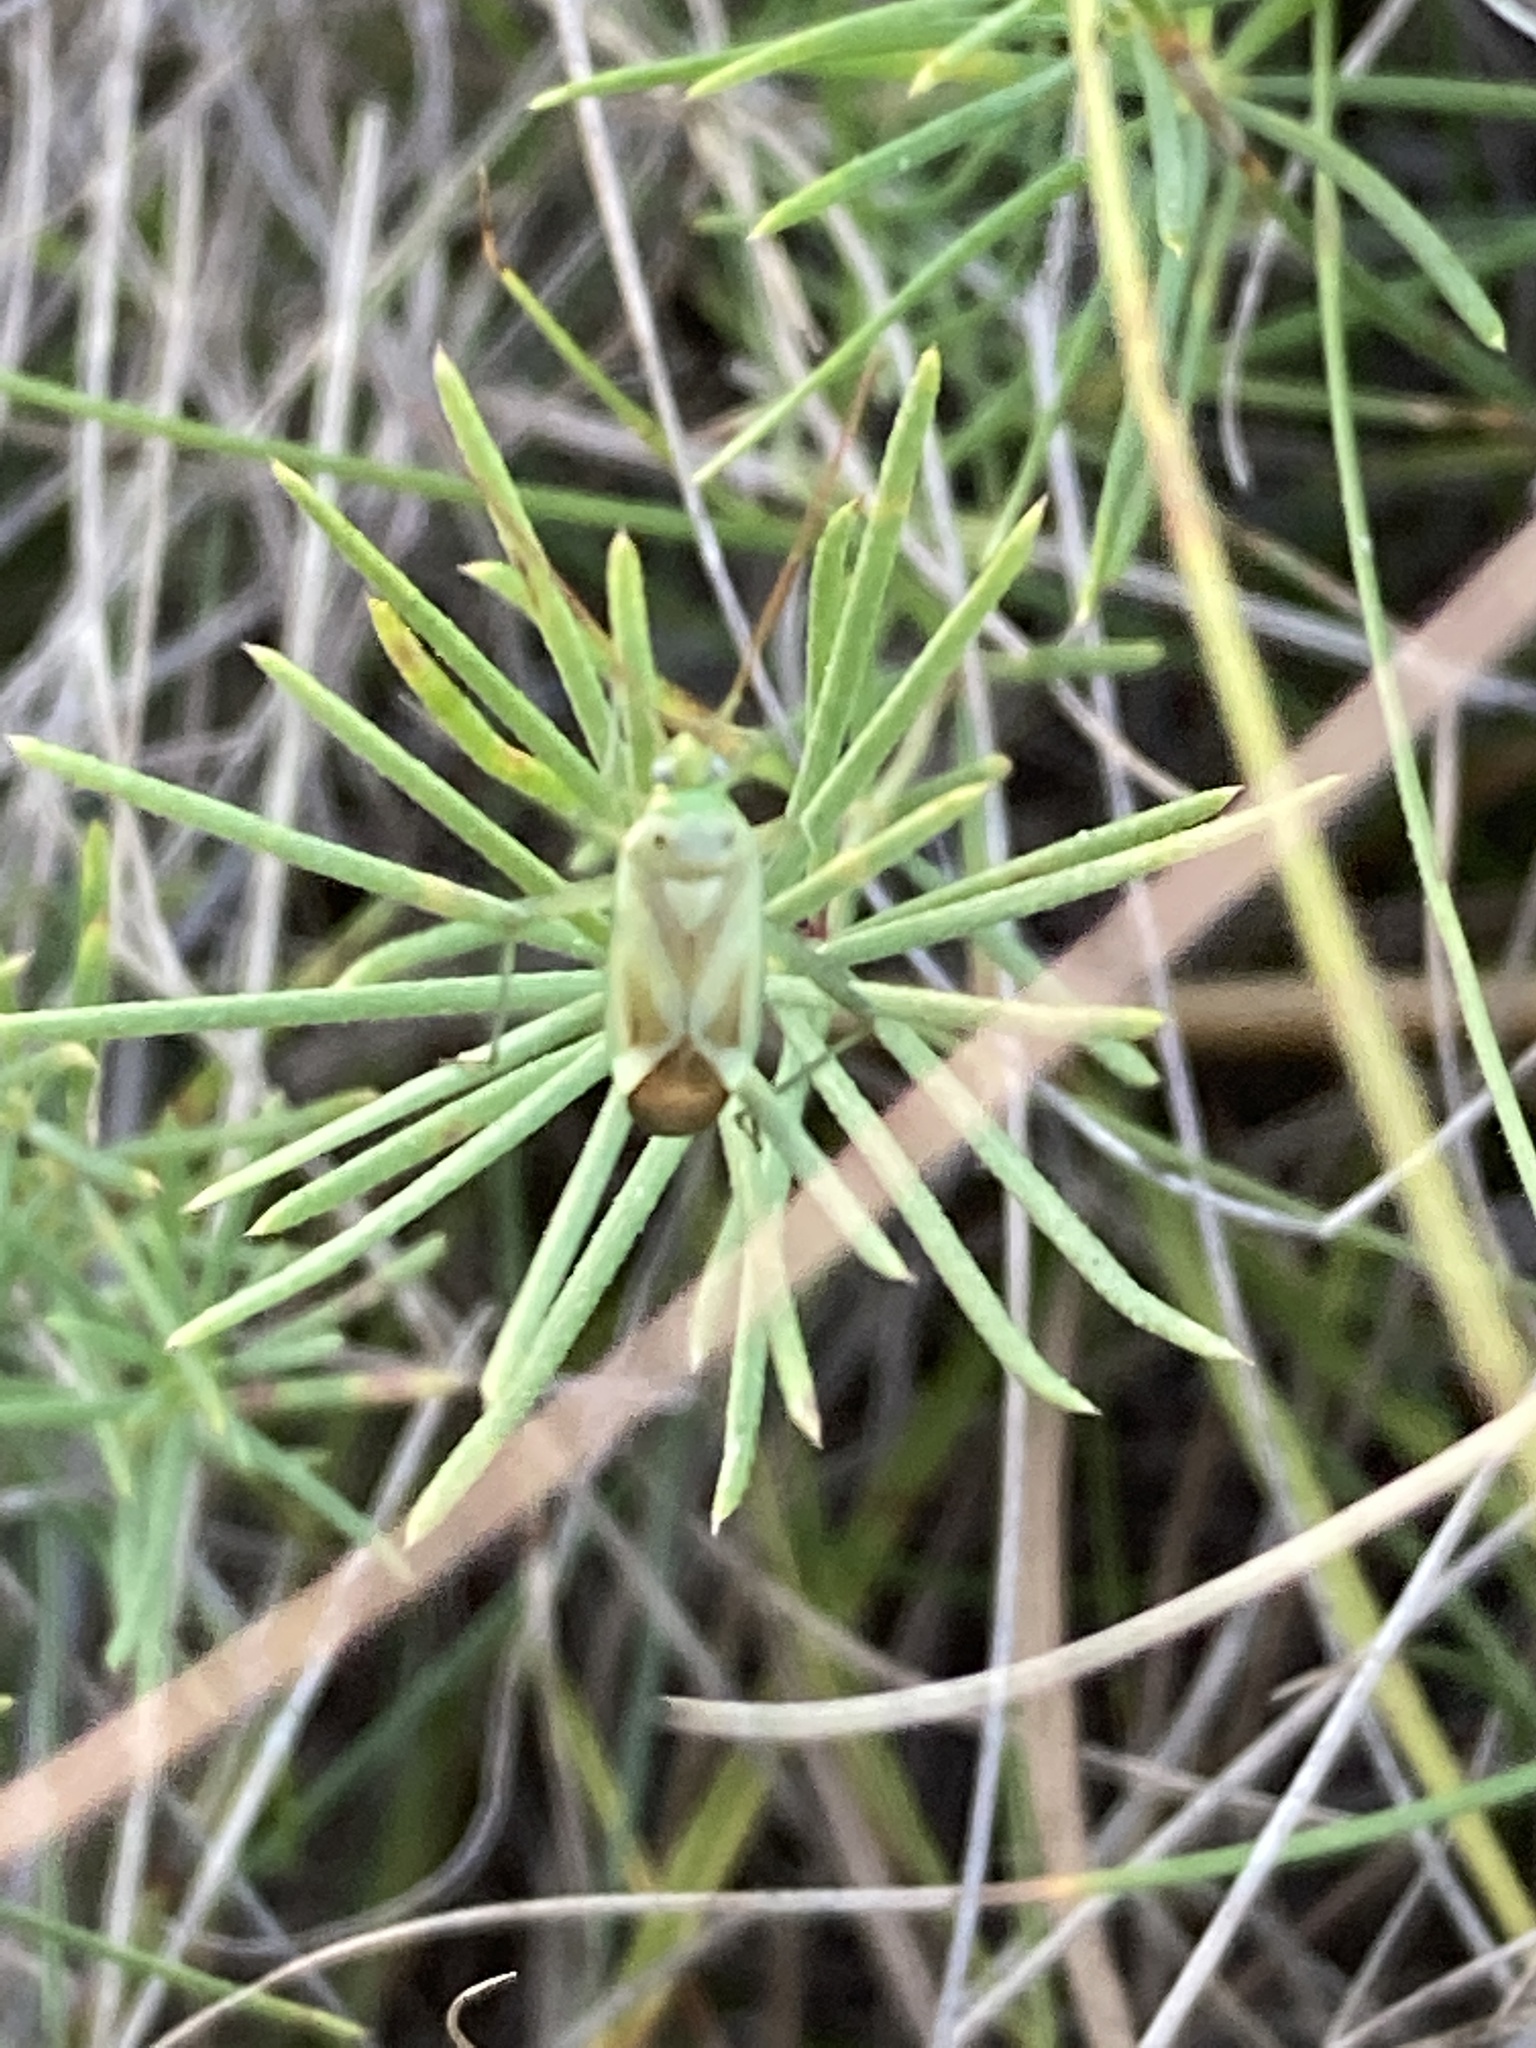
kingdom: Animalia
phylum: Arthropoda
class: Insecta
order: Hemiptera
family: Miridae
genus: Adelphocoris
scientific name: Adelphocoris lineolatus
